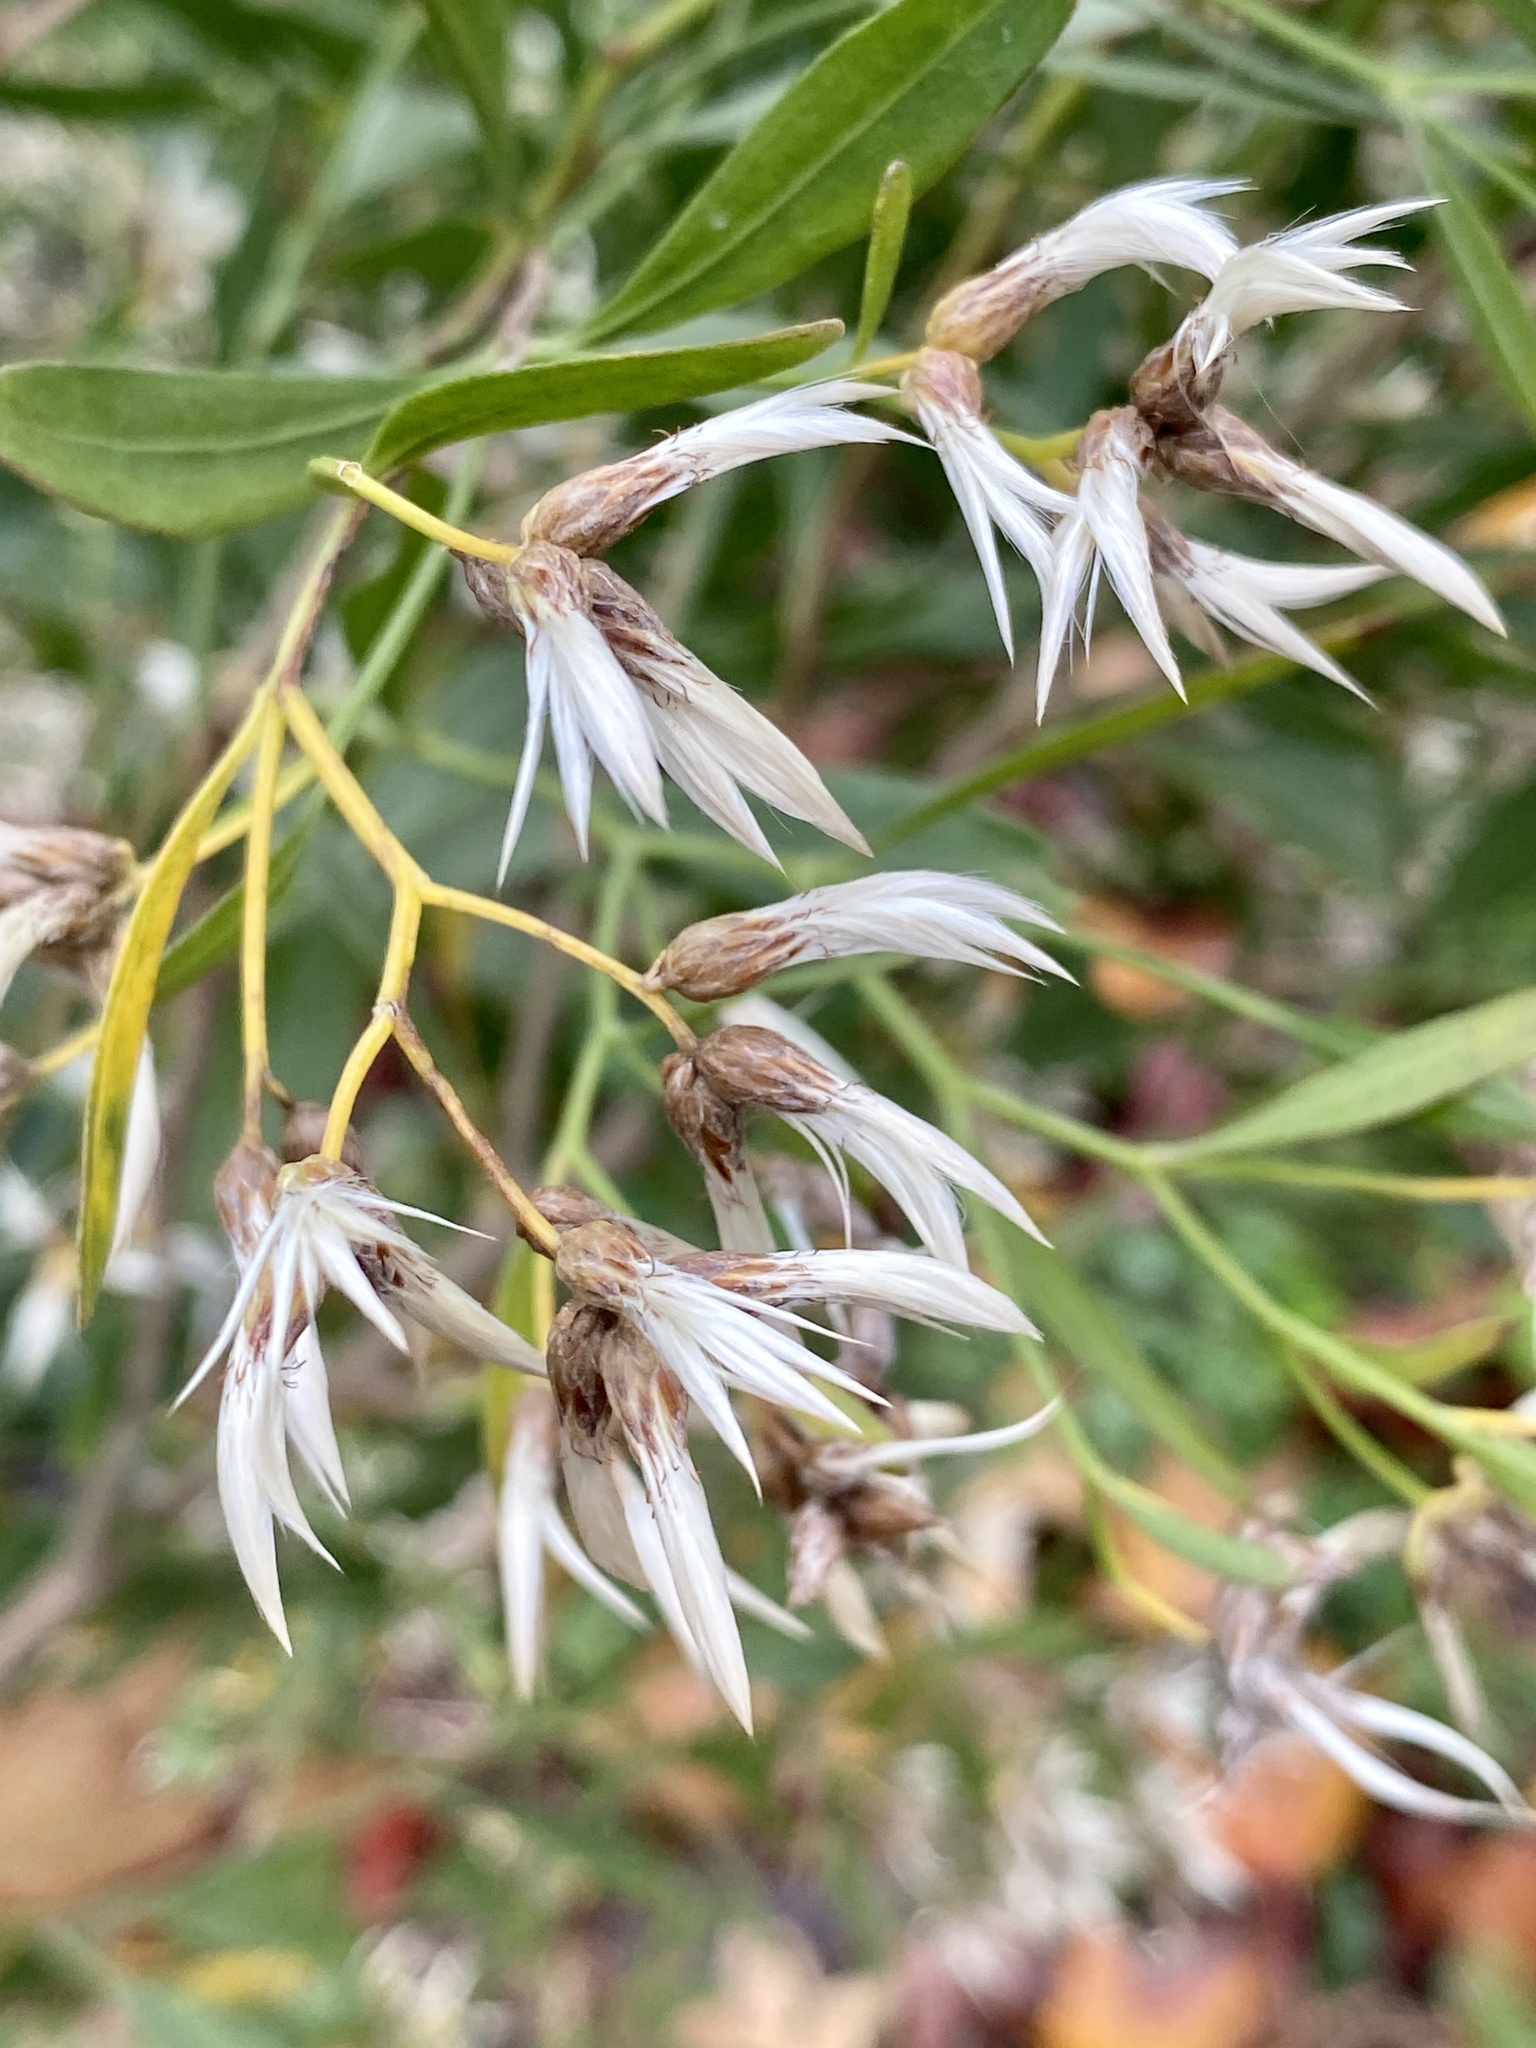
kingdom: Plantae
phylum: Tracheophyta
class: Magnoliopsida
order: Asterales
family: Asteraceae
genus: Baccharis
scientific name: Baccharis halimifolia
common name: Eastern baccharis
